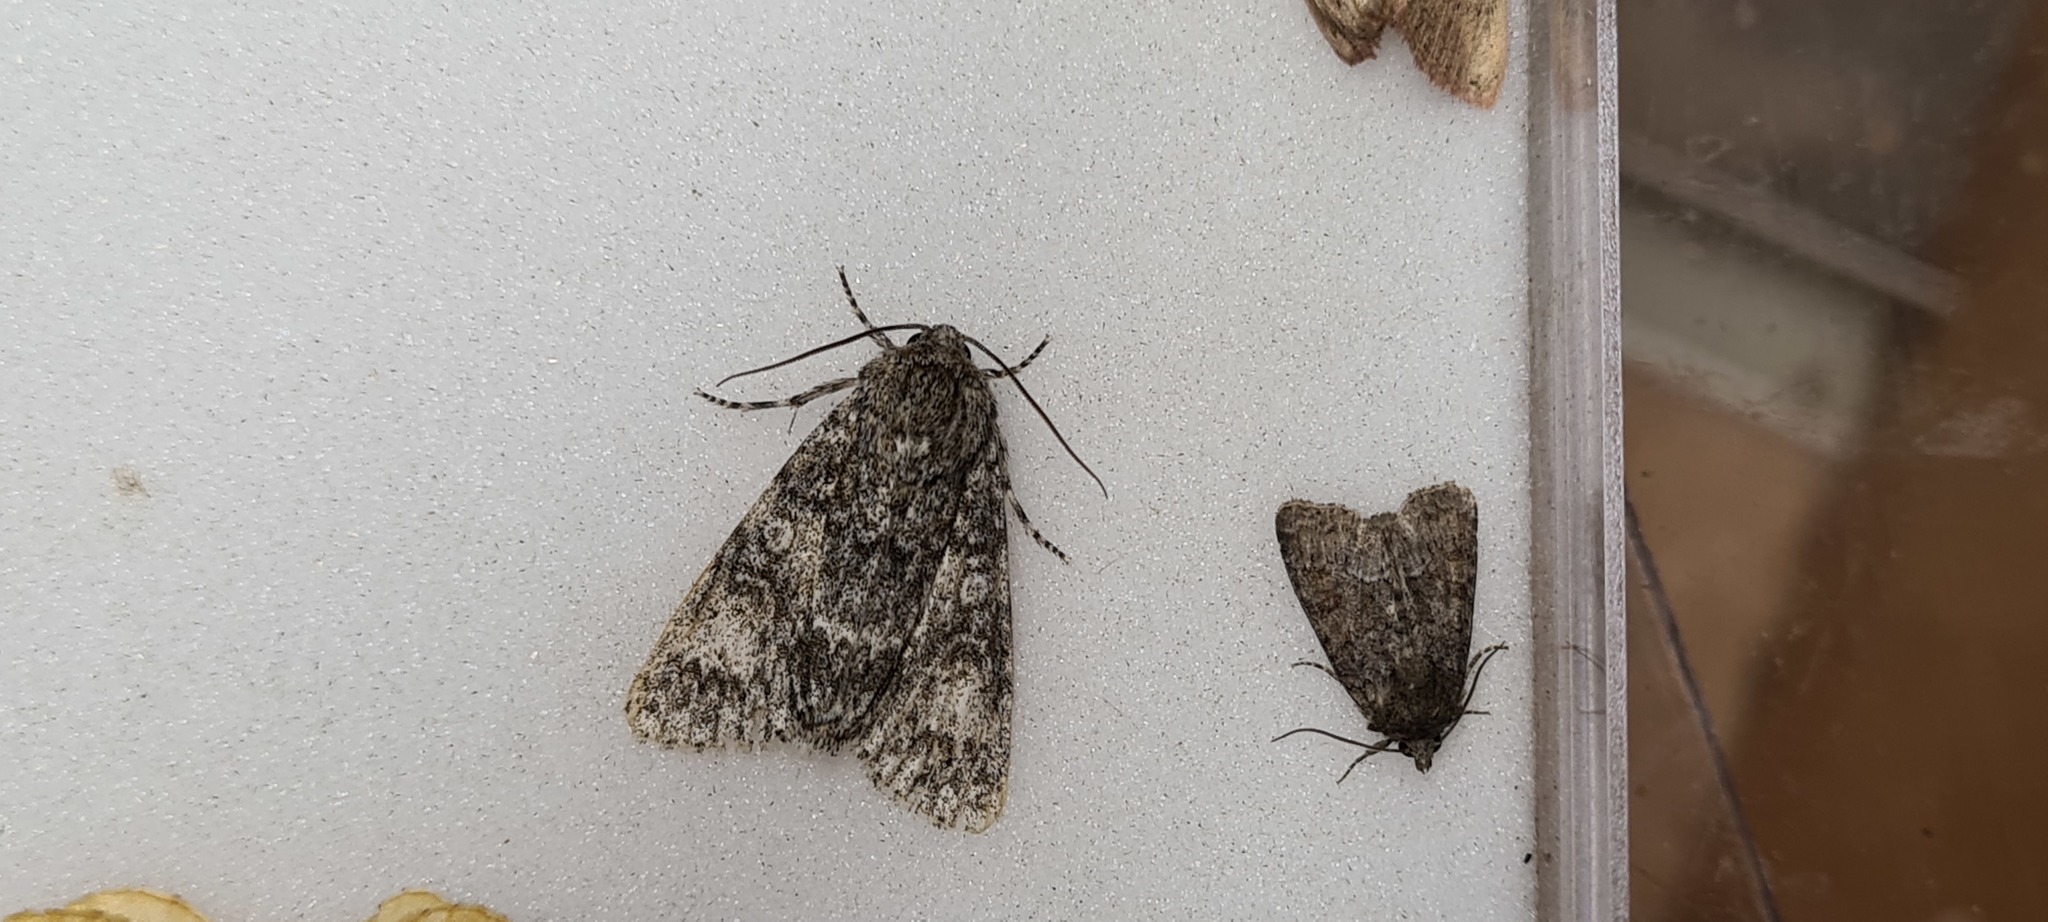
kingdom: Animalia
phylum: Arthropoda
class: Insecta
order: Lepidoptera
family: Noctuidae
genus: Acronicta
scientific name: Acronicta megacephala
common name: Poplar grey
